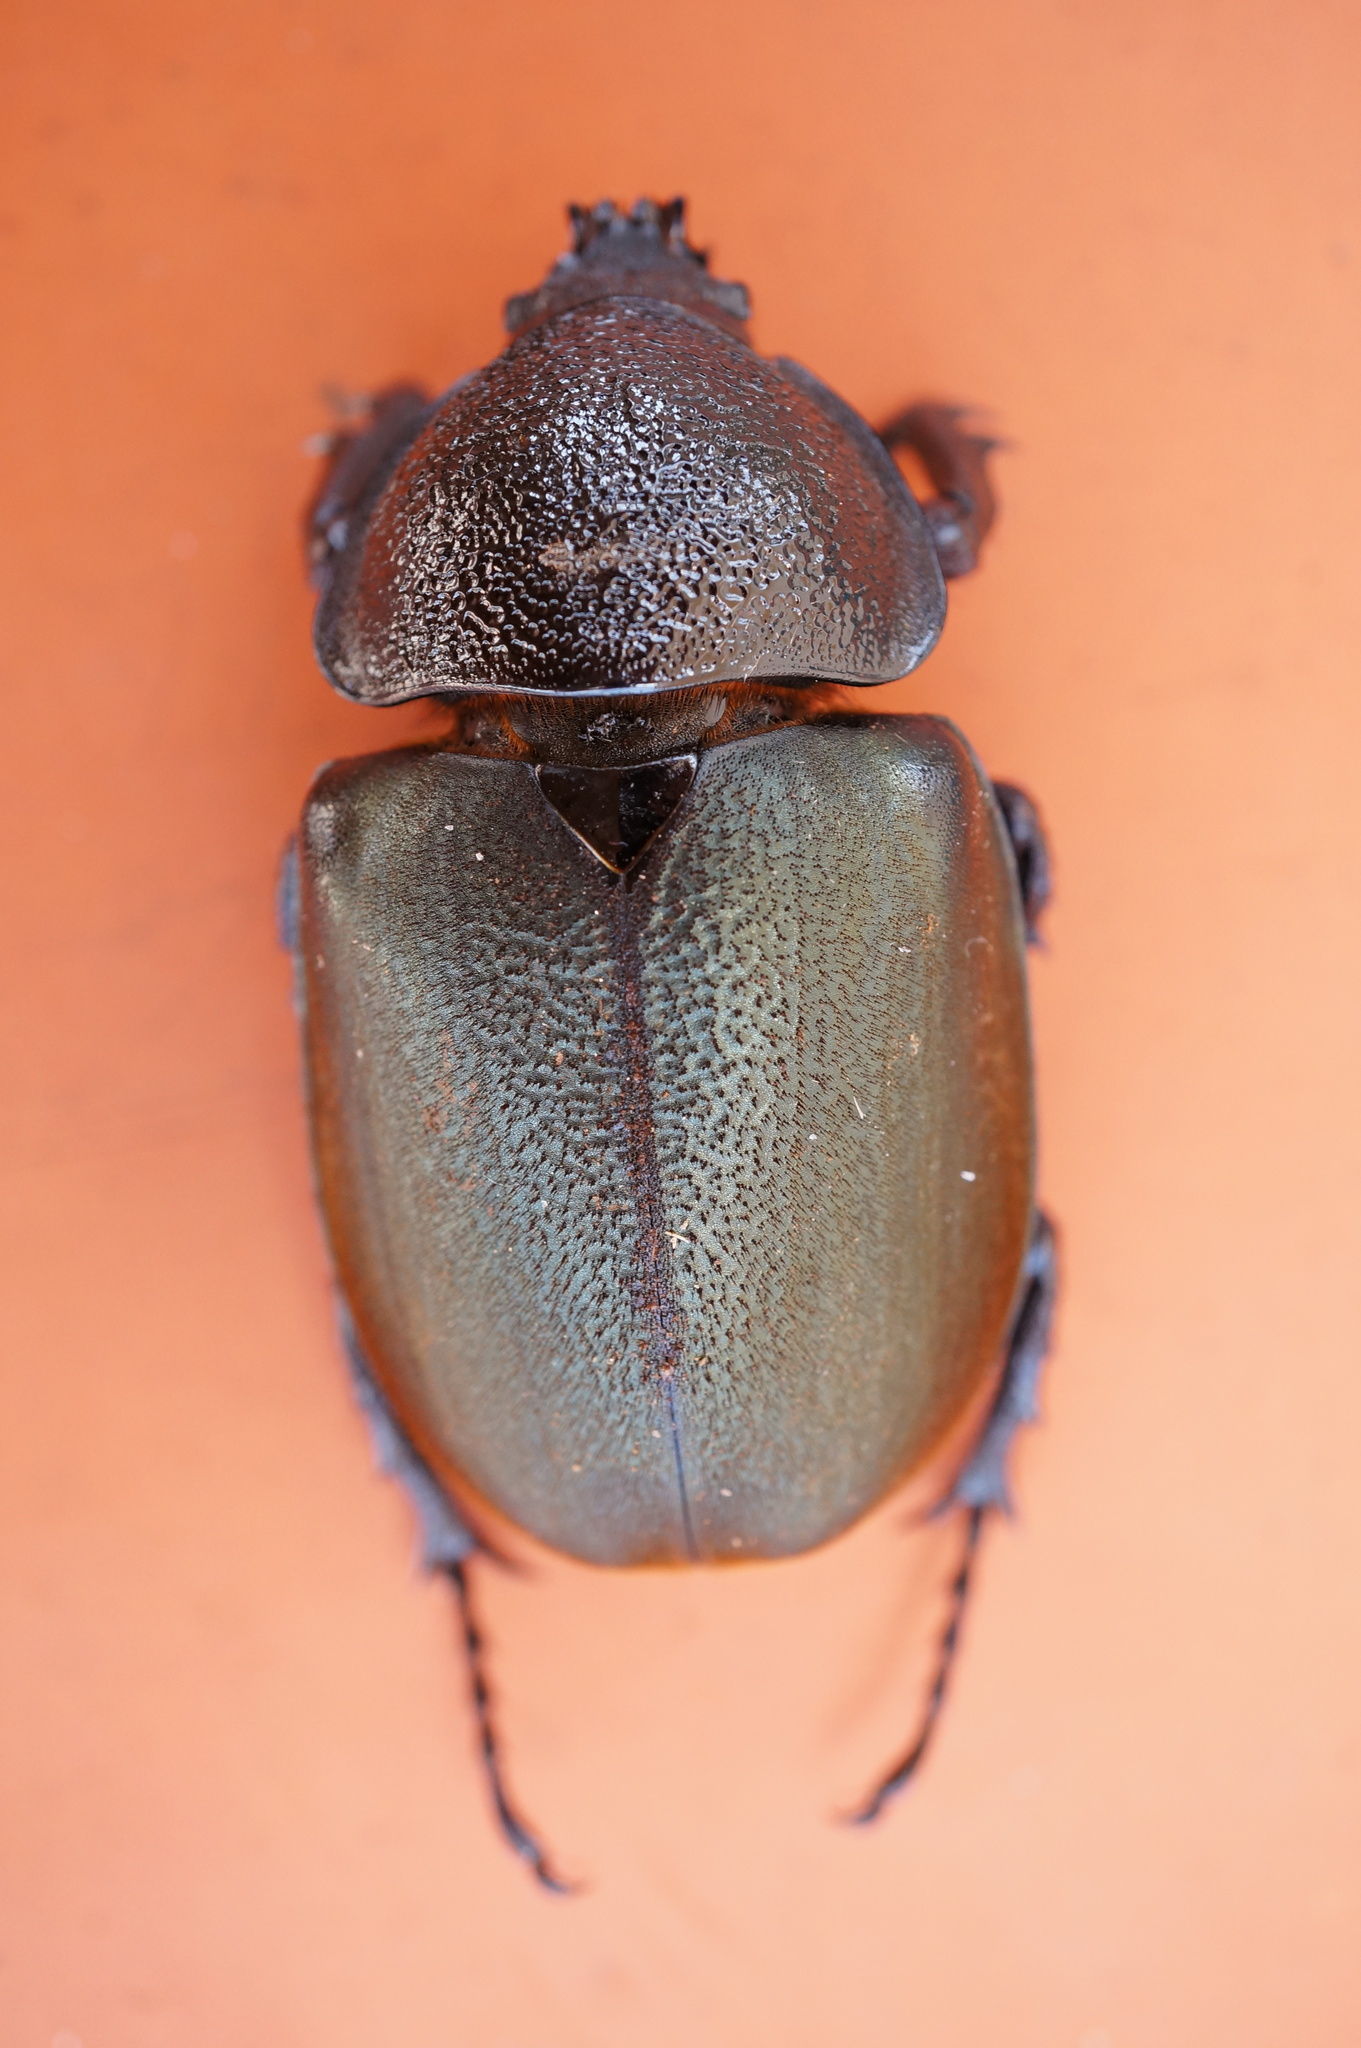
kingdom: Animalia
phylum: Arthropoda
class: Insecta
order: Coleoptera
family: Scarabaeidae
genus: Chalcosoma
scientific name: Chalcosoma chiron
